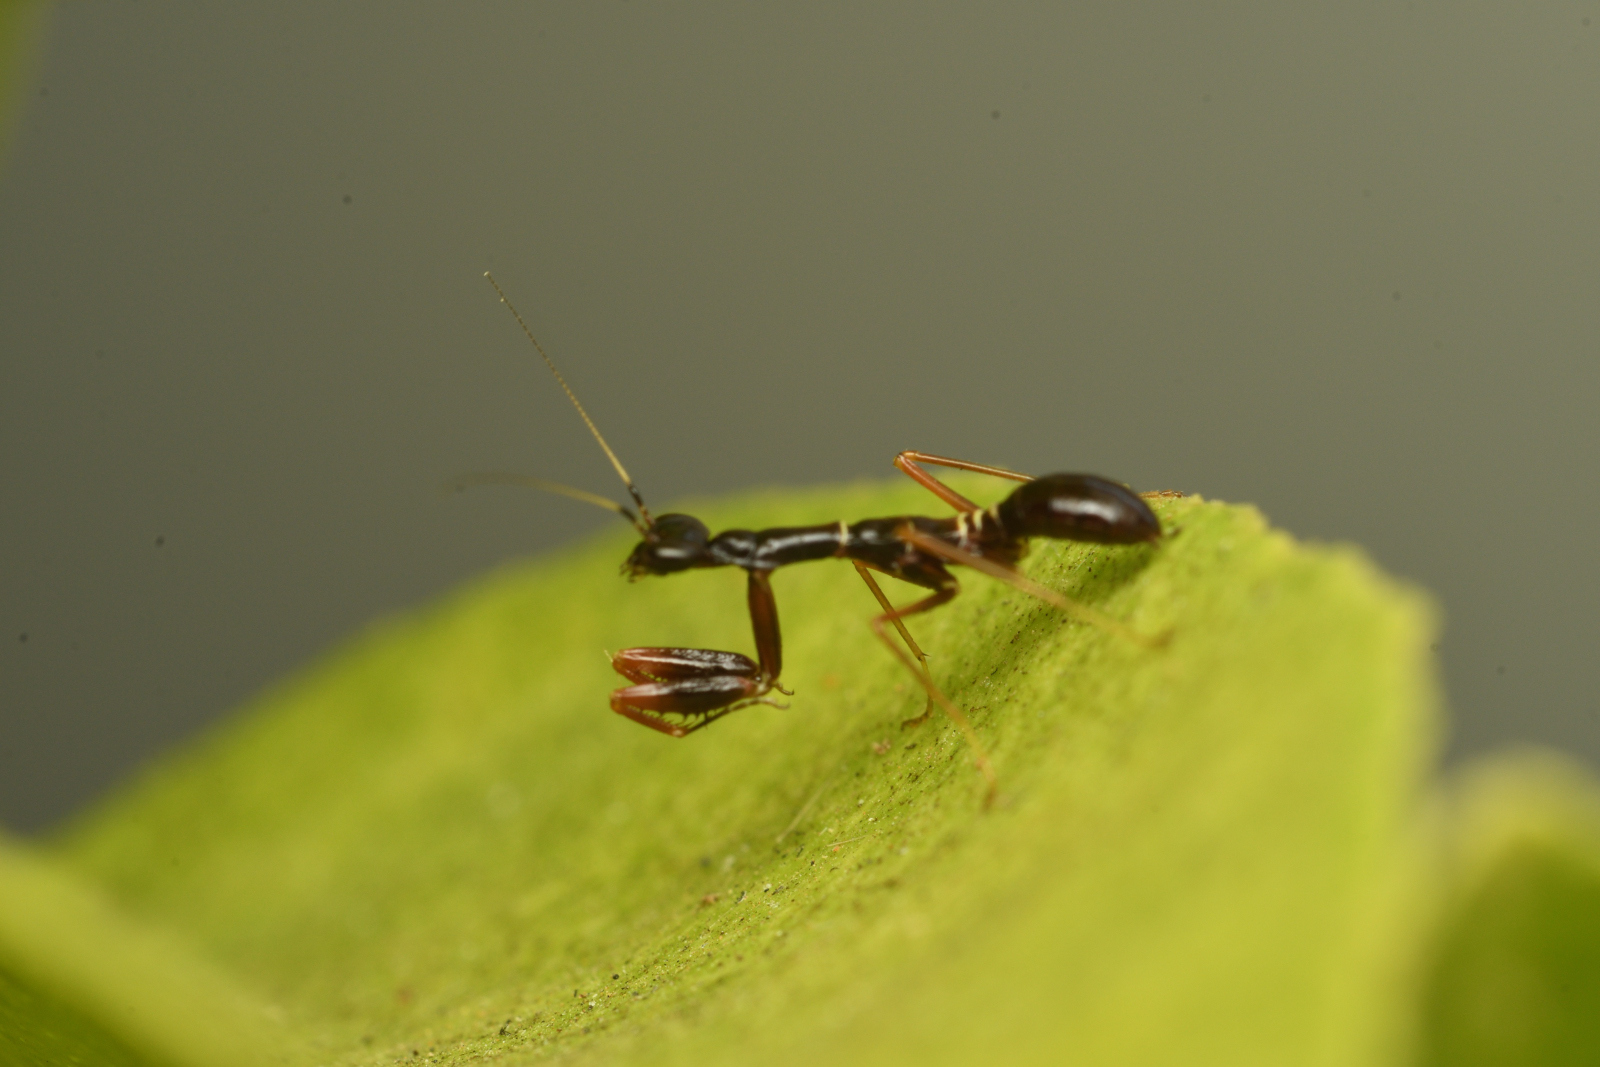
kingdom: Animalia
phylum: Arthropoda
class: Insecta
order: Mantodea
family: Hymenopodidae
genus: Odontomantis
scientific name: Odontomantis pulchra
